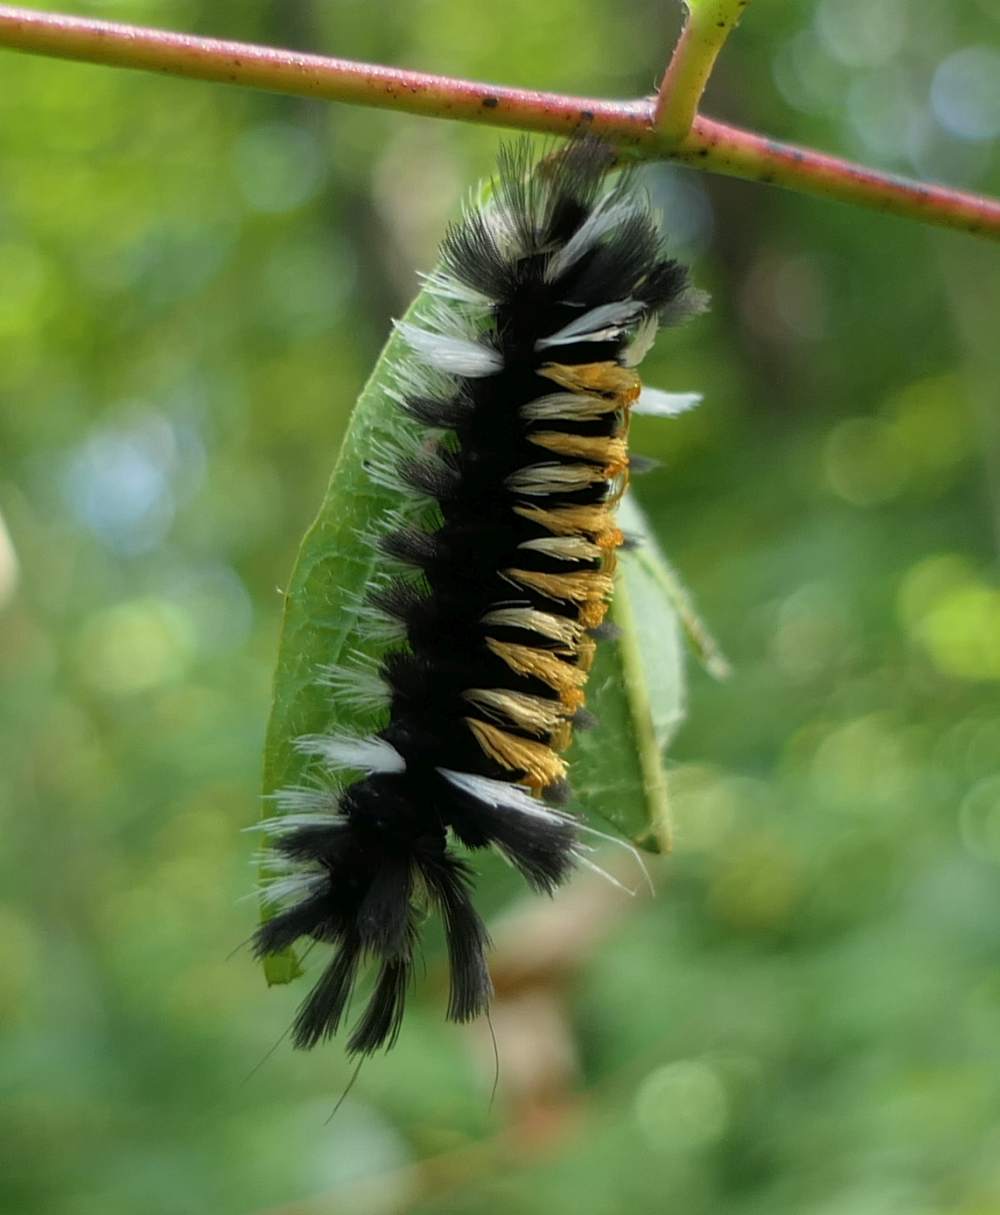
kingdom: Animalia
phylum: Arthropoda
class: Insecta
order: Lepidoptera
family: Erebidae
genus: Euchaetes
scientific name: Euchaetes egle
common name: Milkweed tussock moth
